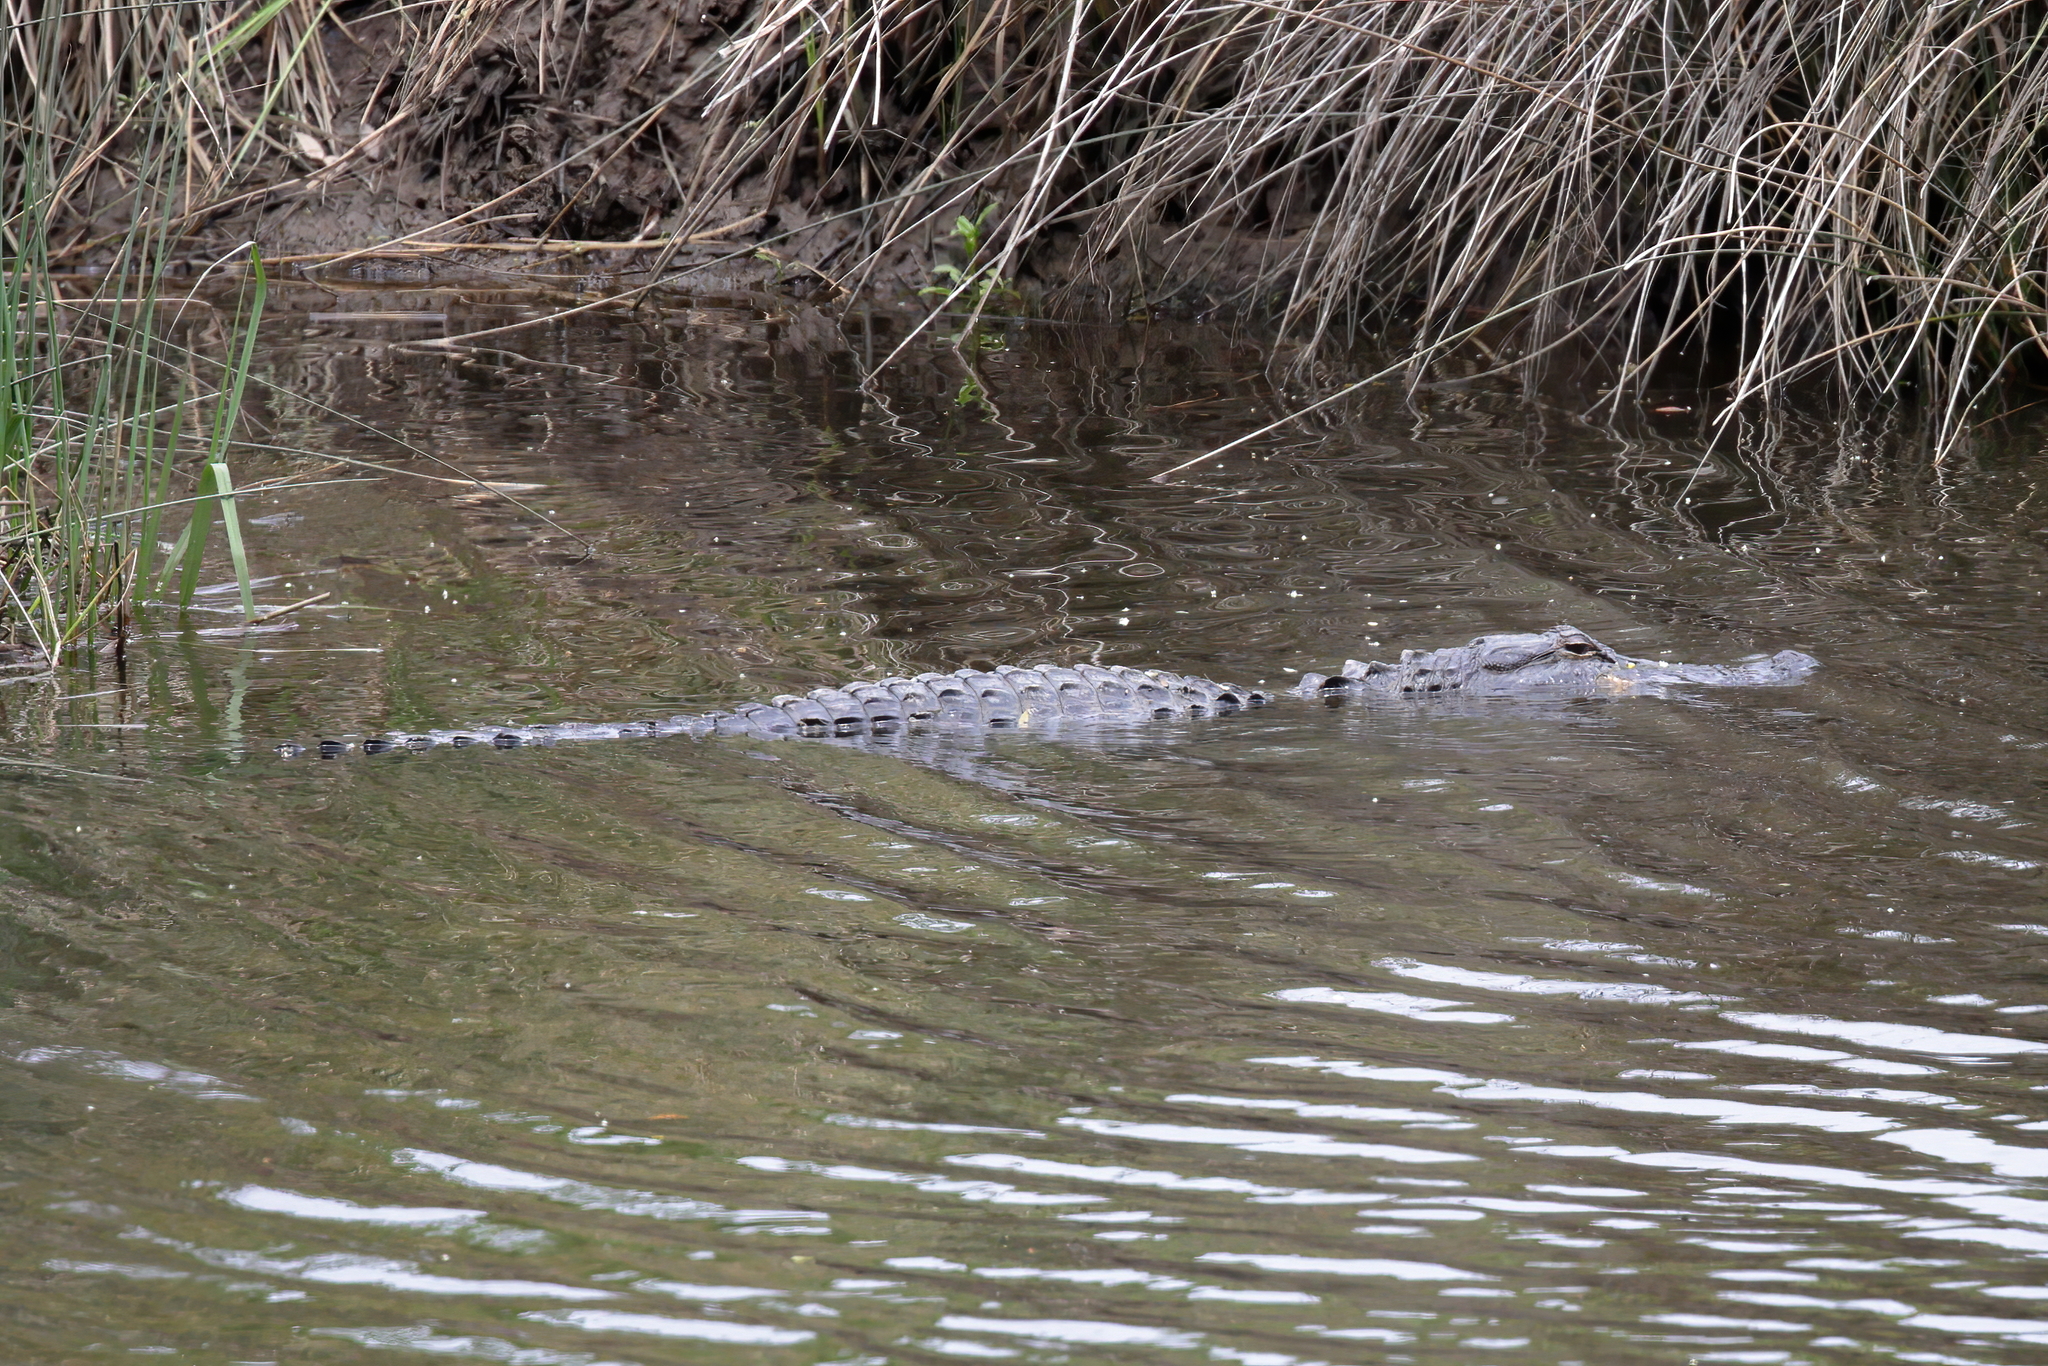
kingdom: Animalia
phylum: Chordata
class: Crocodylia
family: Alligatoridae
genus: Alligator
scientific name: Alligator mississippiensis
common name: American alligator
